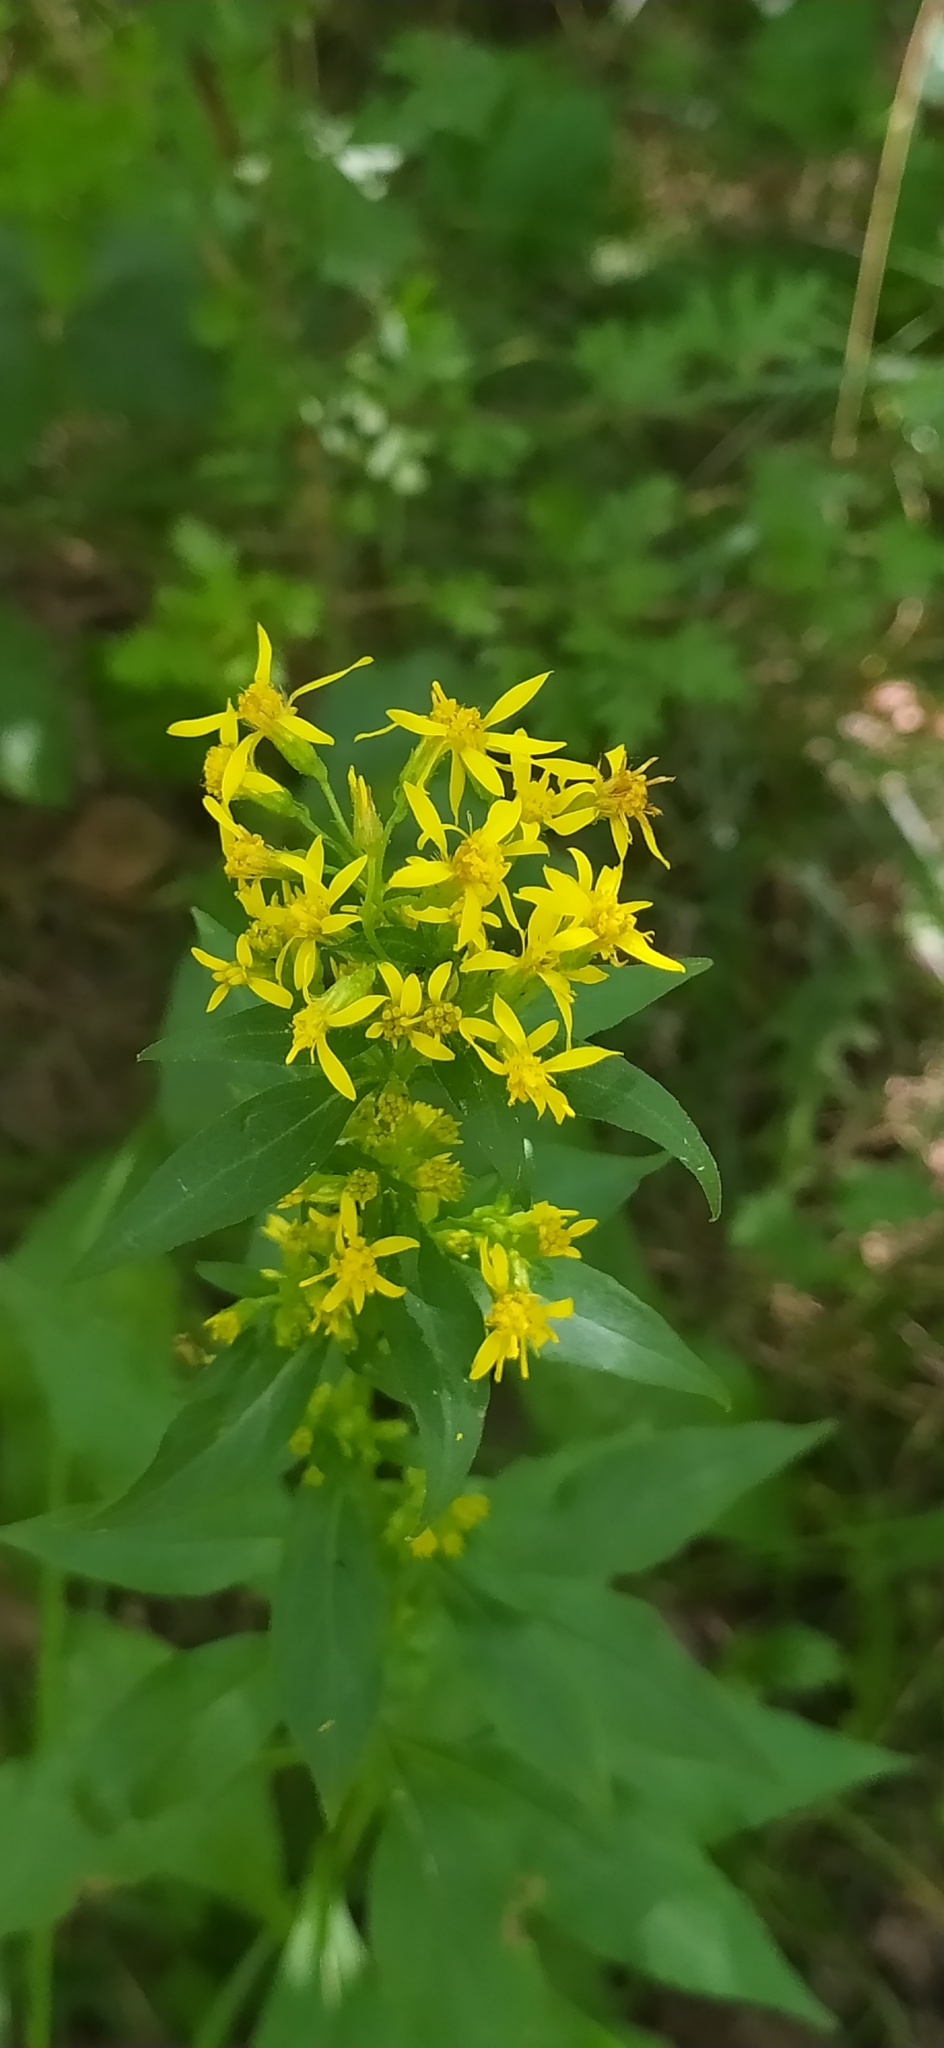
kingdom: Plantae
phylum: Tracheophyta
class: Magnoliopsida
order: Asterales
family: Asteraceae
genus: Solidago
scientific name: Solidago virgaurea
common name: Goldenrod
